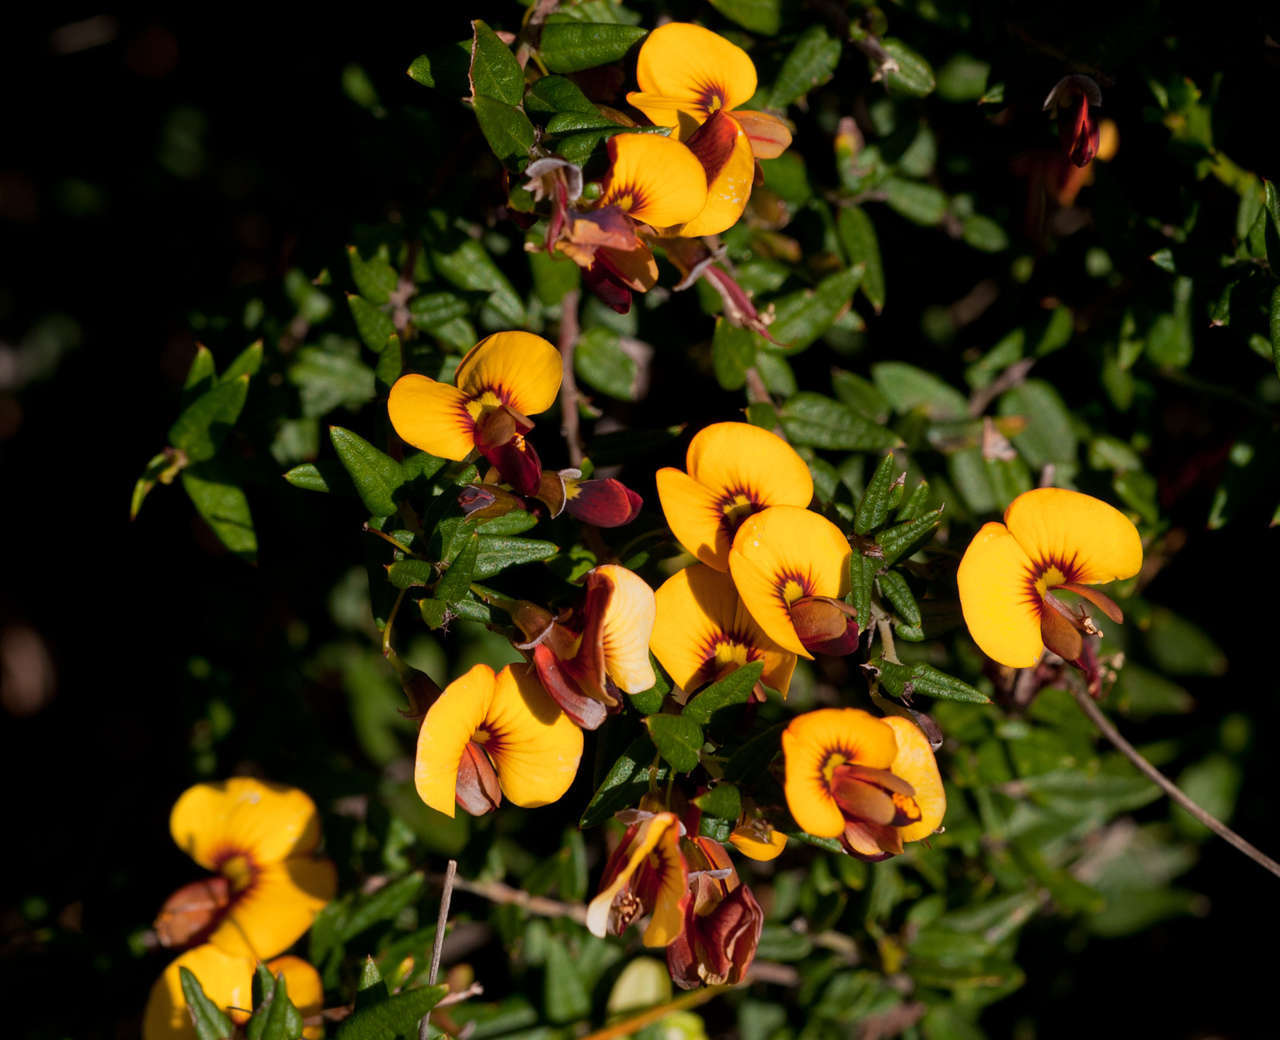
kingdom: Plantae
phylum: Tracheophyta
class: Magnoliopsida
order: Fabales
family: Fabaceae
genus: Bossiaea
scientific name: Bossiaea cinerea
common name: Showy bossiaea
